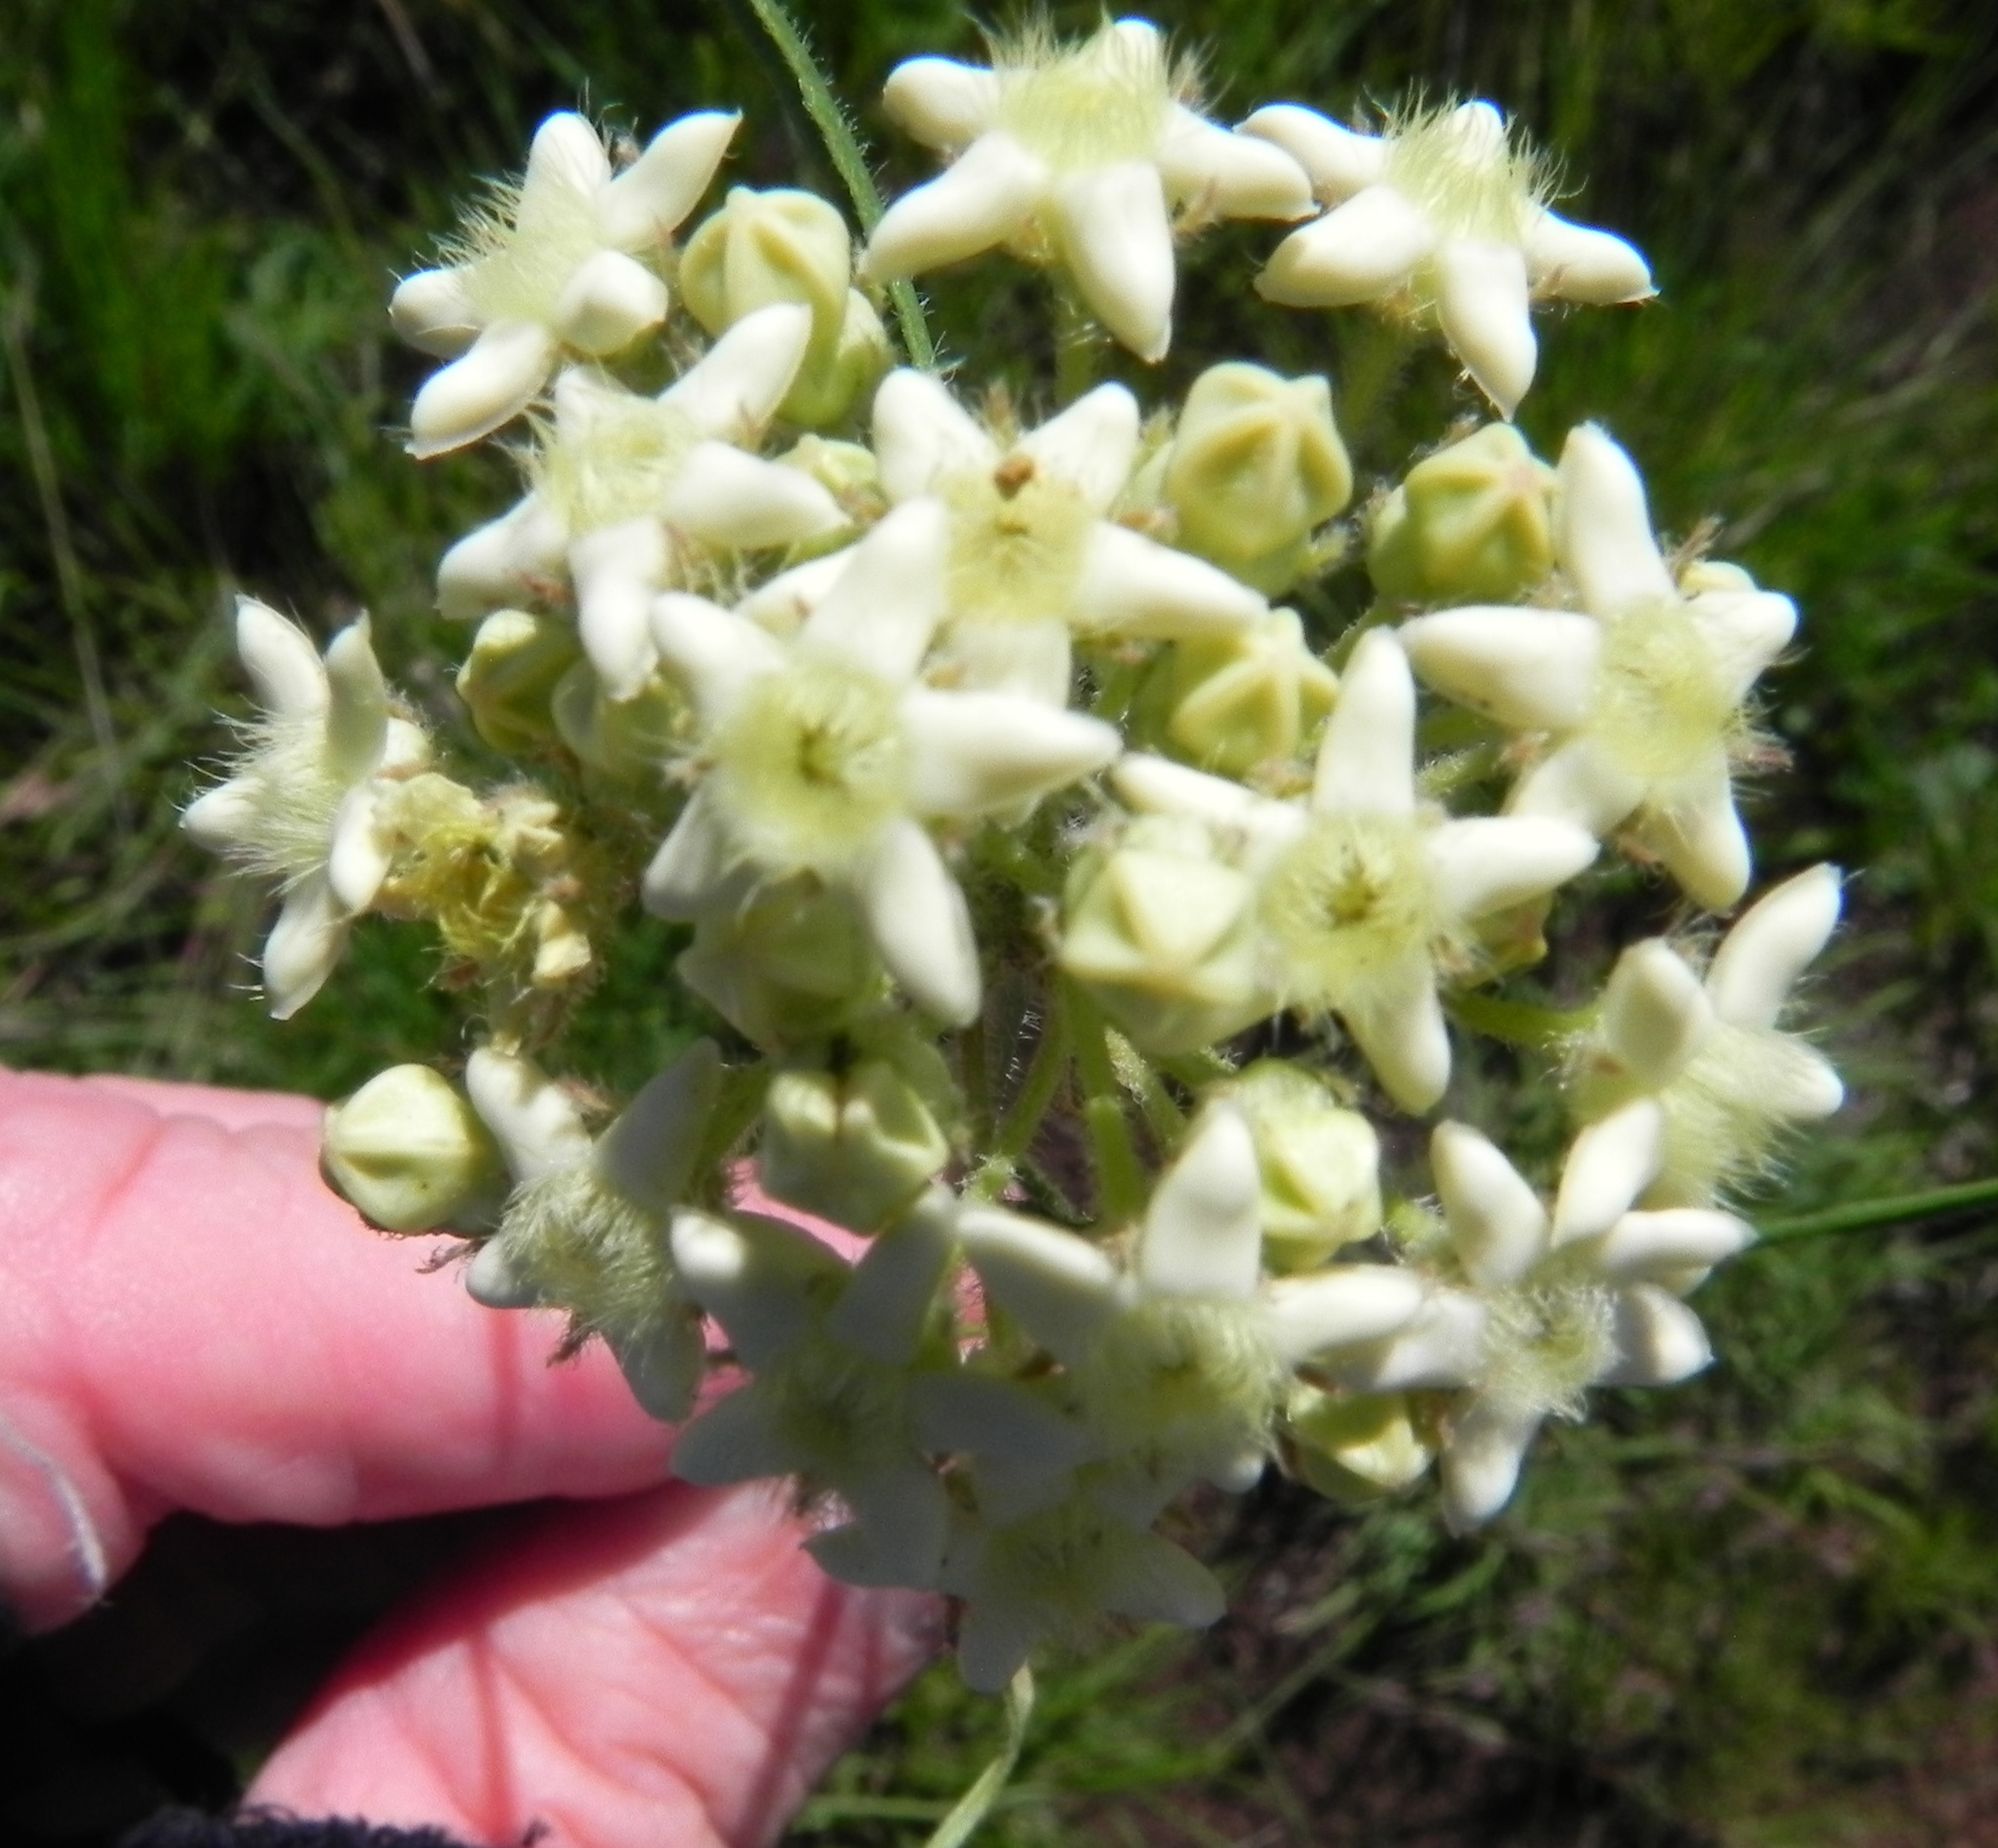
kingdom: Plantae
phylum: Tracheophyta
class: Magnoliopsida
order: Gentianales
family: Apocynaceae
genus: Sisyranthus
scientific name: Sisyranthus trichostomus
